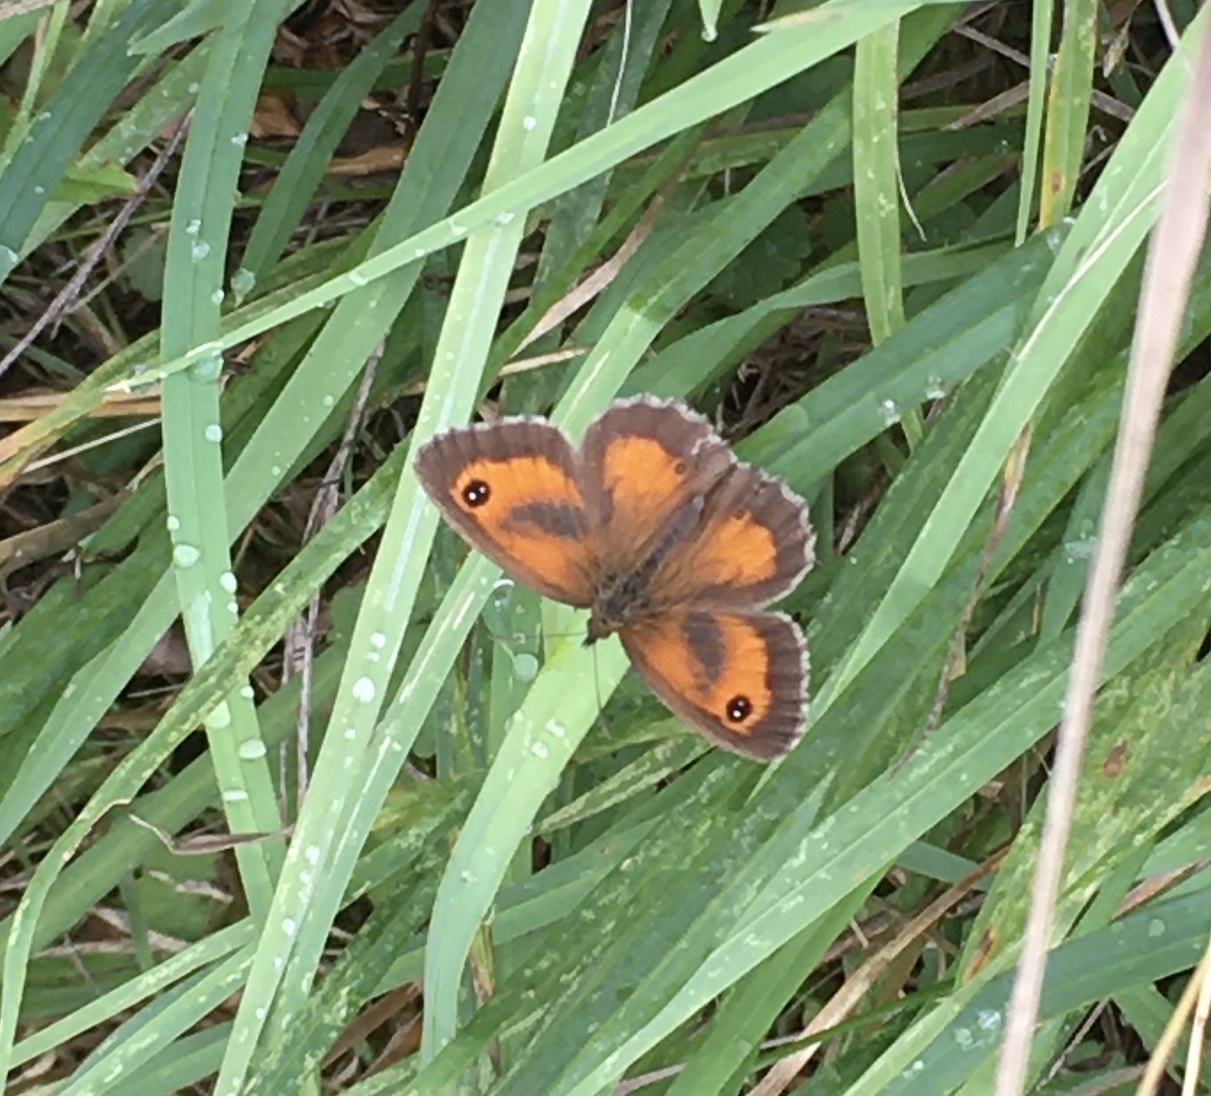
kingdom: Animalia
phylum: Arthropoda
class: Insecta
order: Lepidoptera
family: Nymphalidae
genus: Pyronia
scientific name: Pyronia tithonus
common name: Gatekeeper
